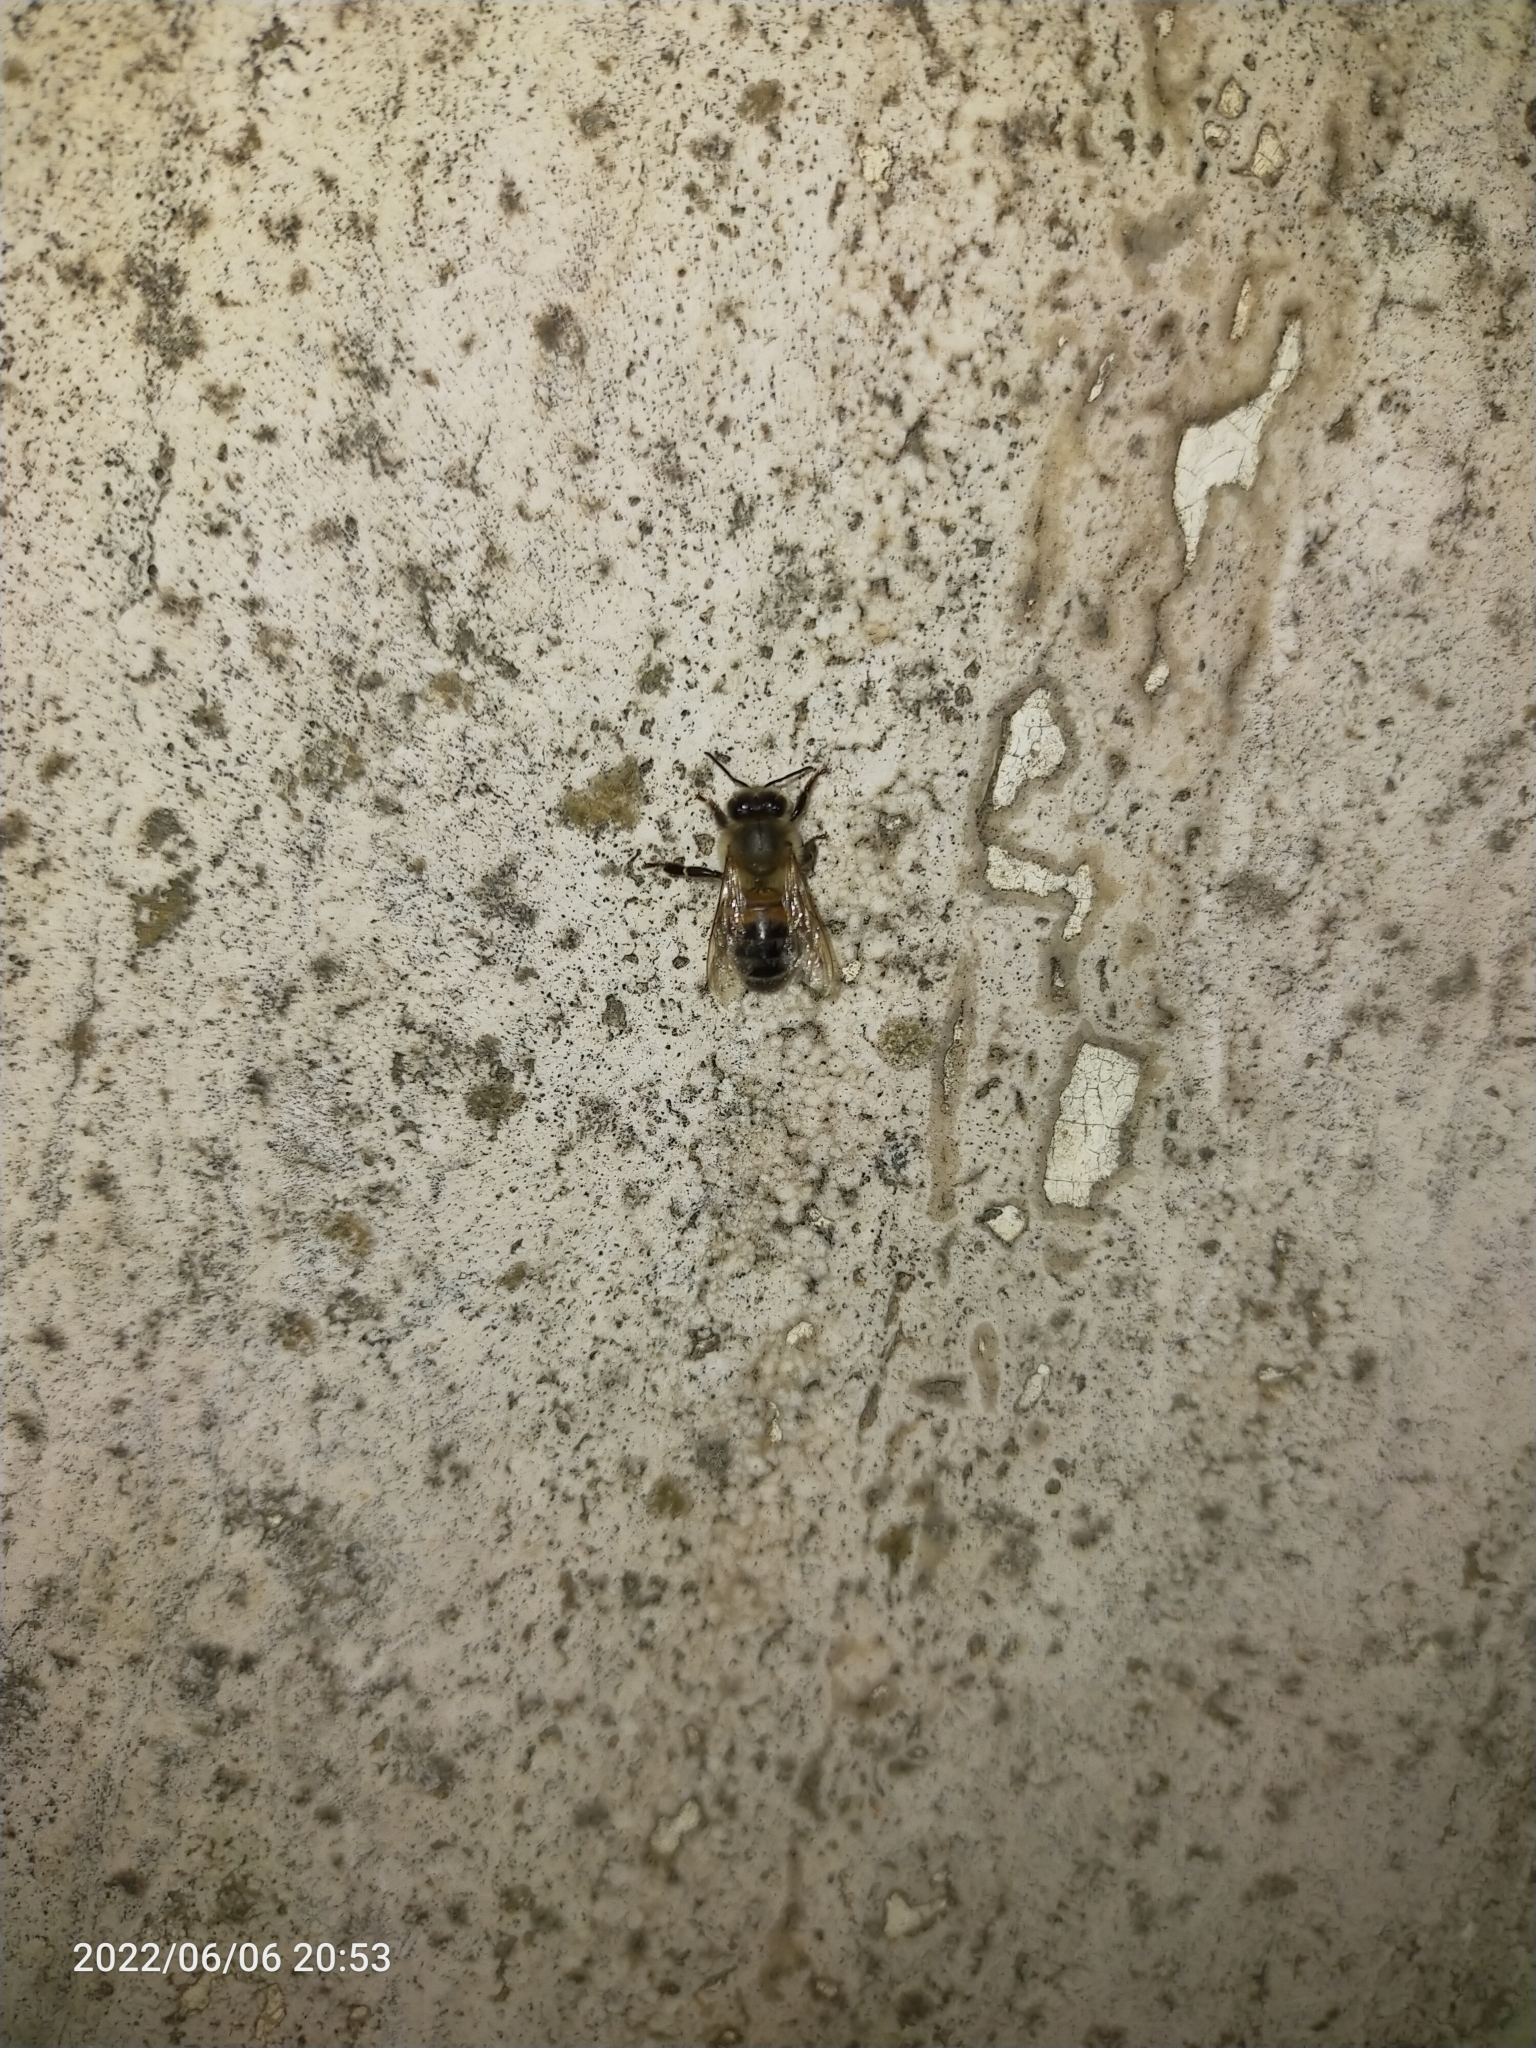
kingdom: Animalia
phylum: Arthropoda
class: Insecta
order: Hymenoptera
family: Apidae
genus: Apis
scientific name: Apis mellifera
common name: Honey bee
